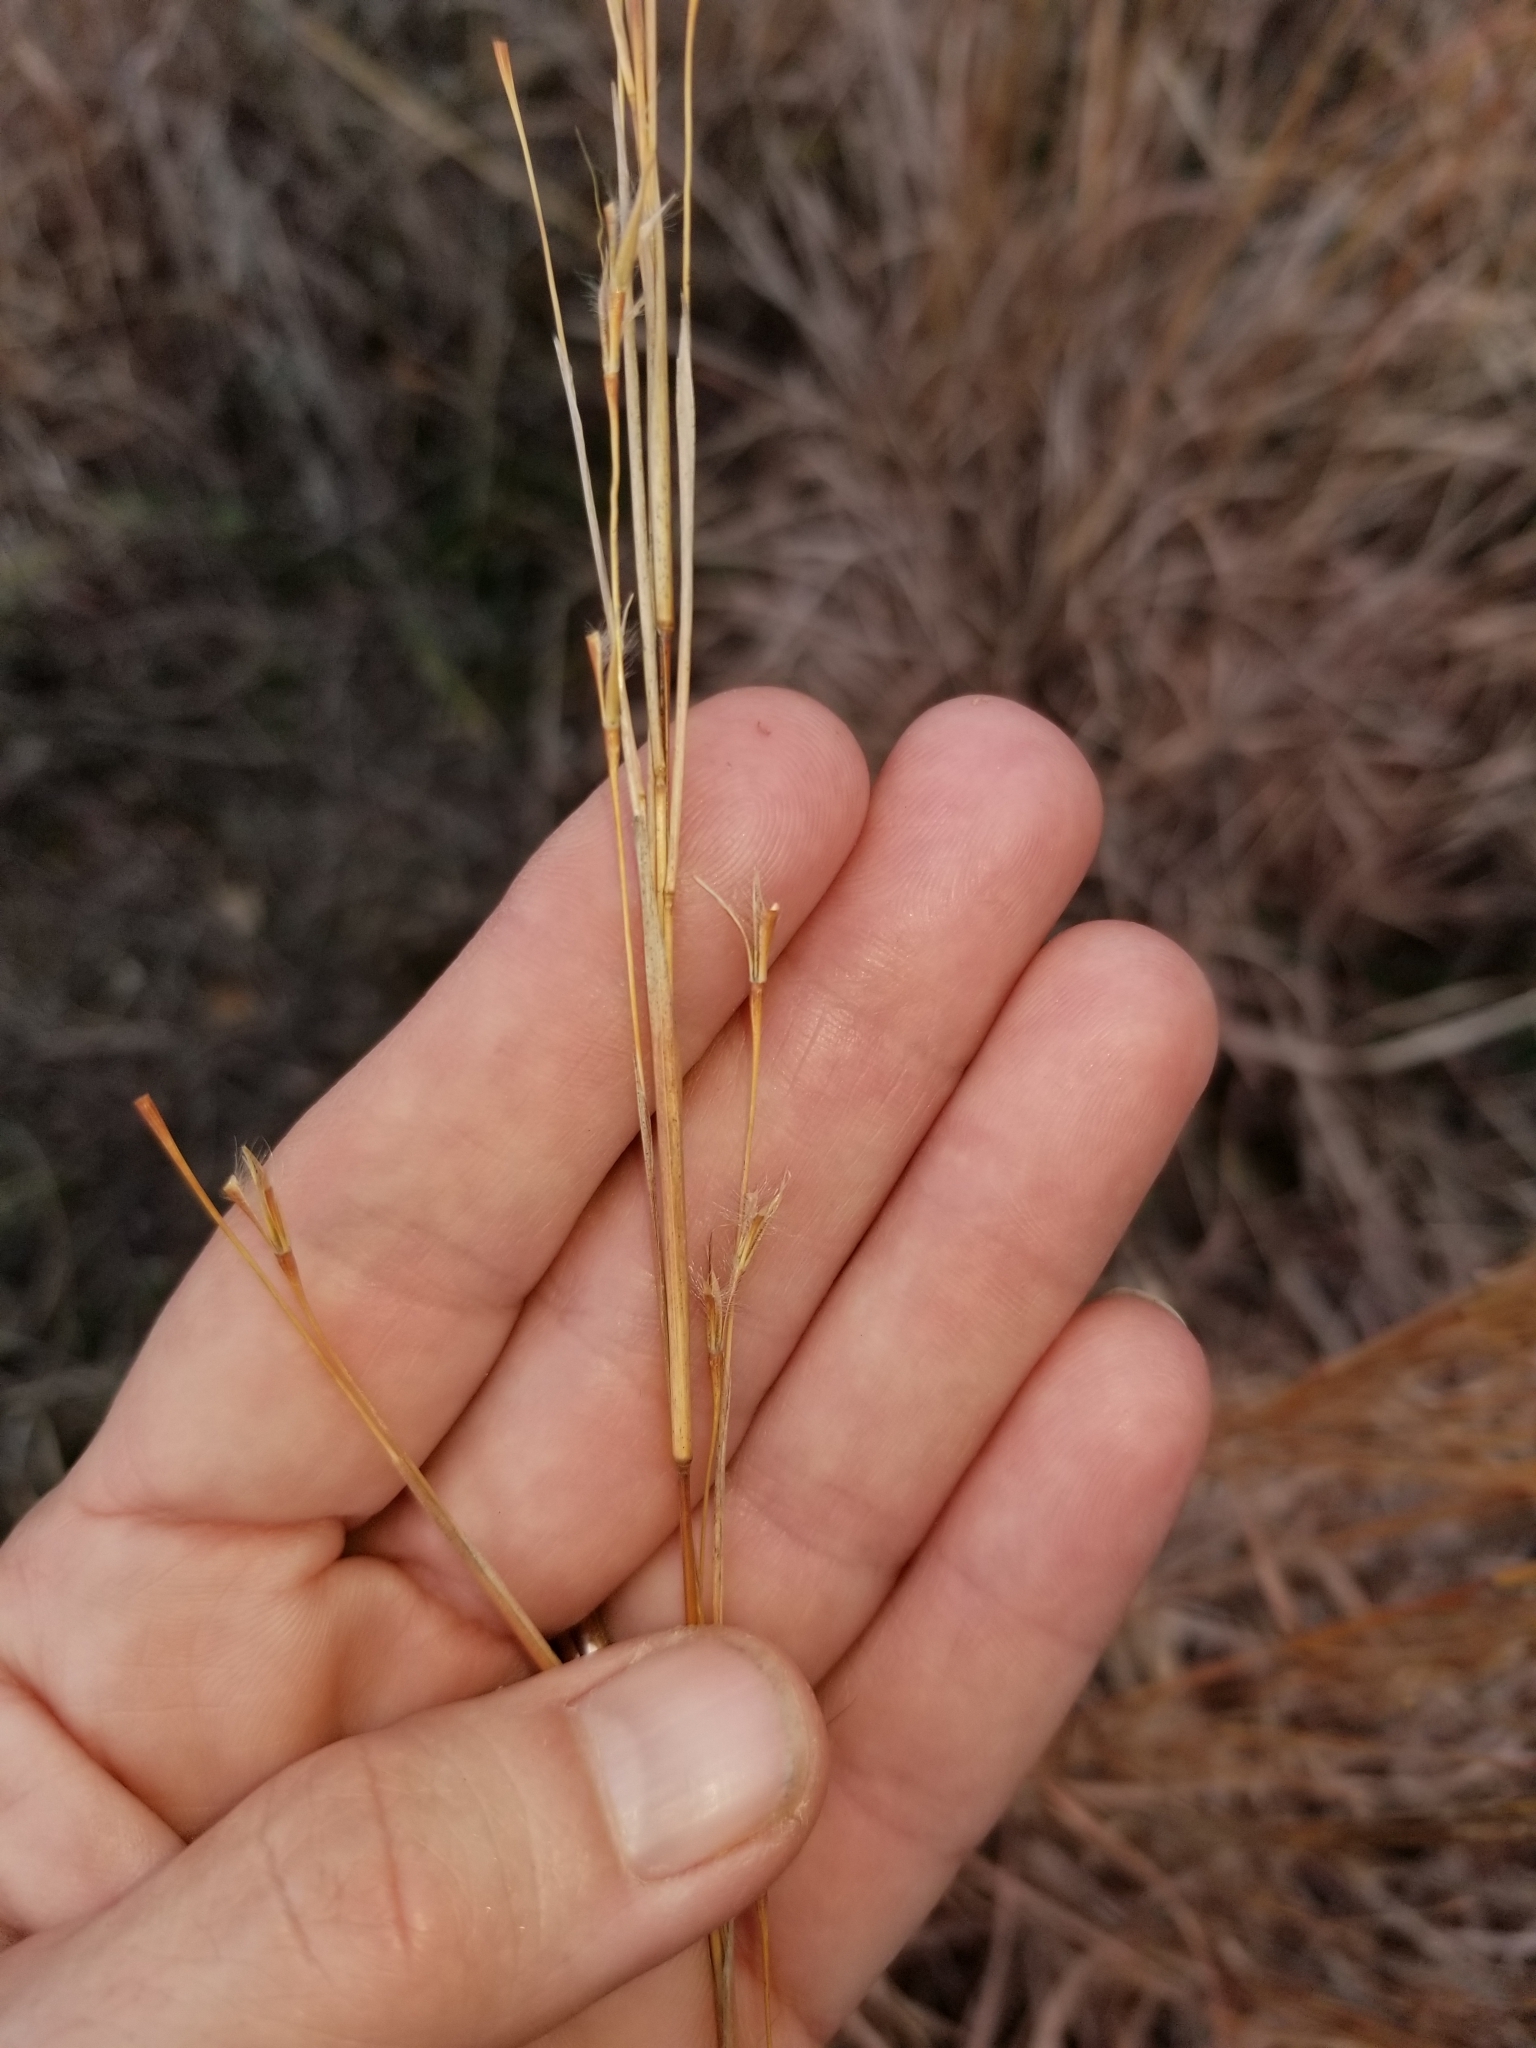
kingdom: Plantae
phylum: Tracheophyta
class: Liliopsida
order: Poales
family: Poaceae
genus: Schizachyrium
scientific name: Schizachyrium scoparium
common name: Little bluestem
